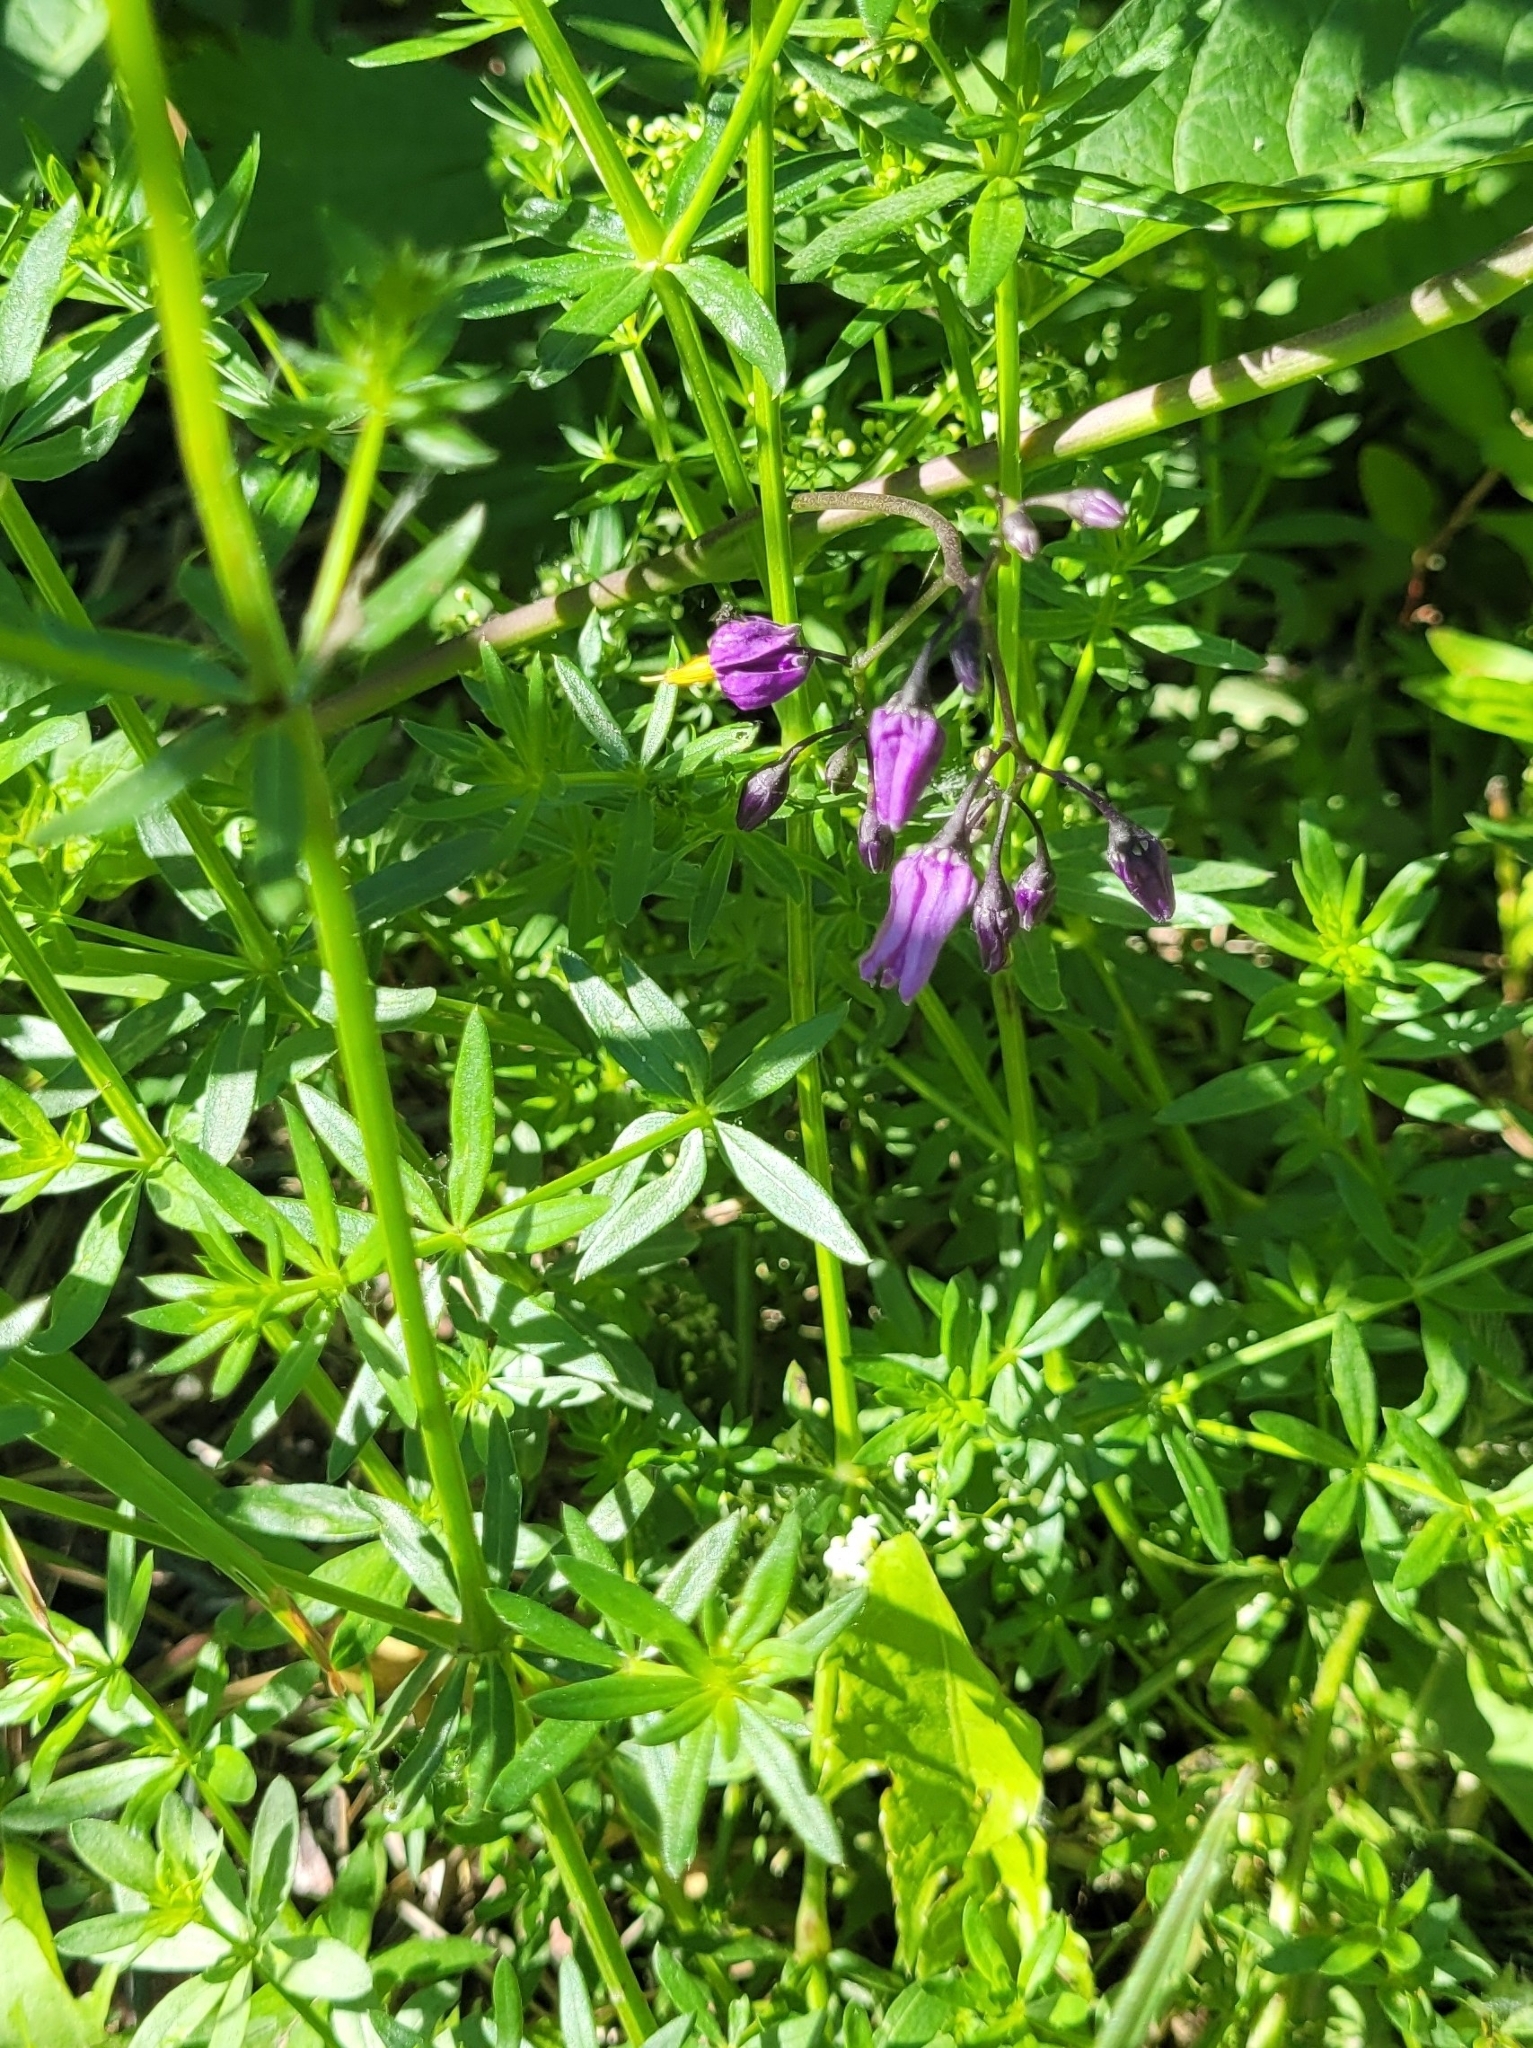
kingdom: Plantae
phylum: Tracheophyta
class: Magnoliopsida
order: Solanales
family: Solanaceae
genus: Solanum
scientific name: Solanum dulcamara
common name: Climbing nightshade
